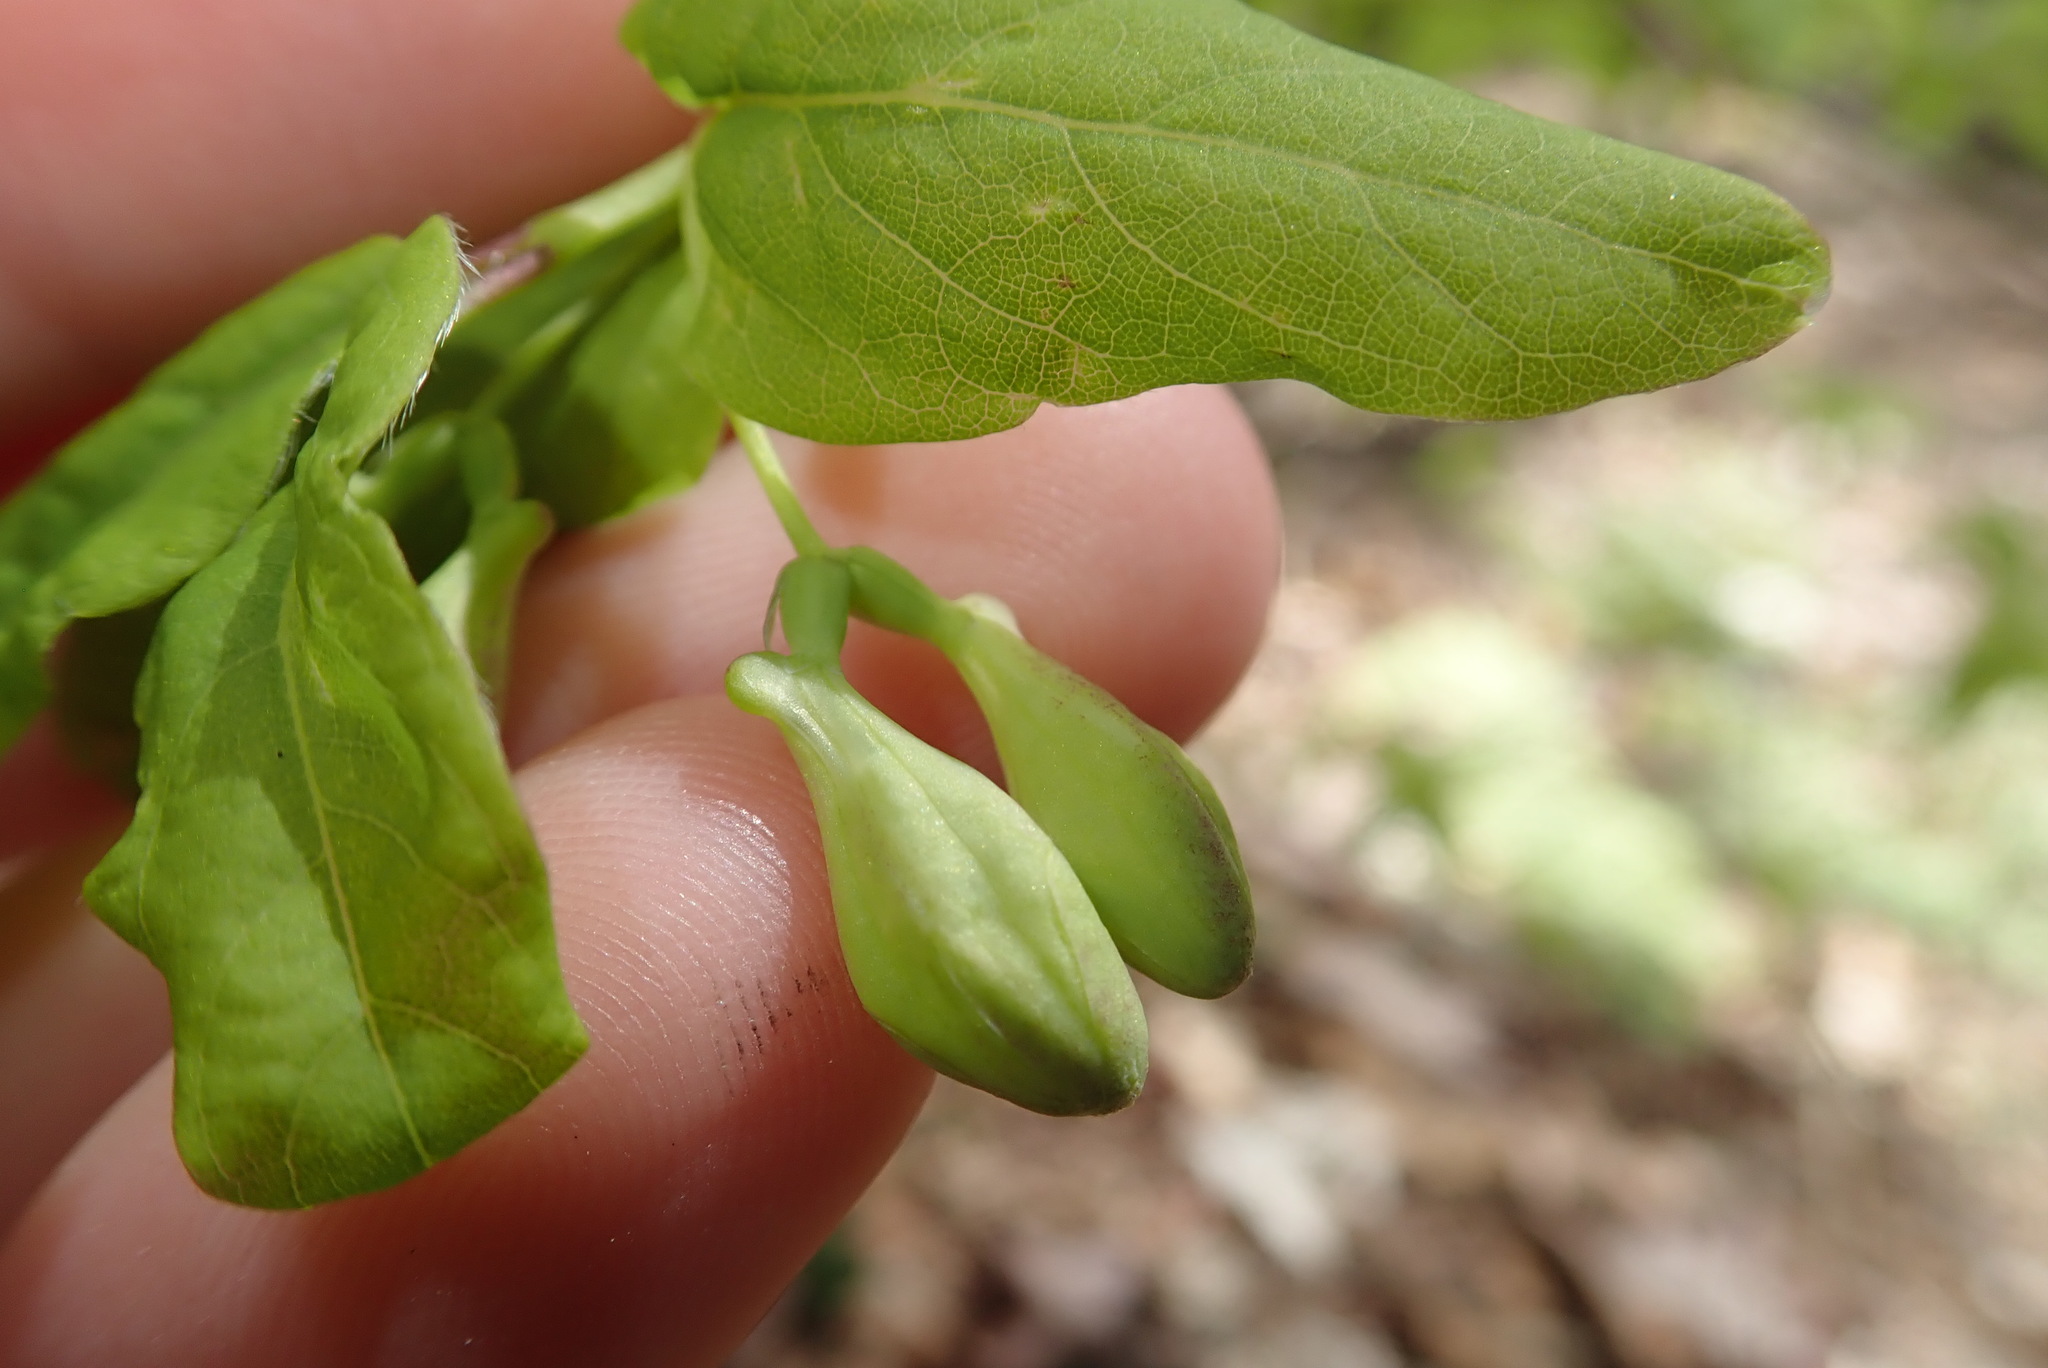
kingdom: Plantae
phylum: Tracheophyta
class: Magnoliopsida
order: Dipsacales
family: Caprifoliaceae
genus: Lonicera
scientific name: Lonicera canadensis
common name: American fly-honeysuckle
